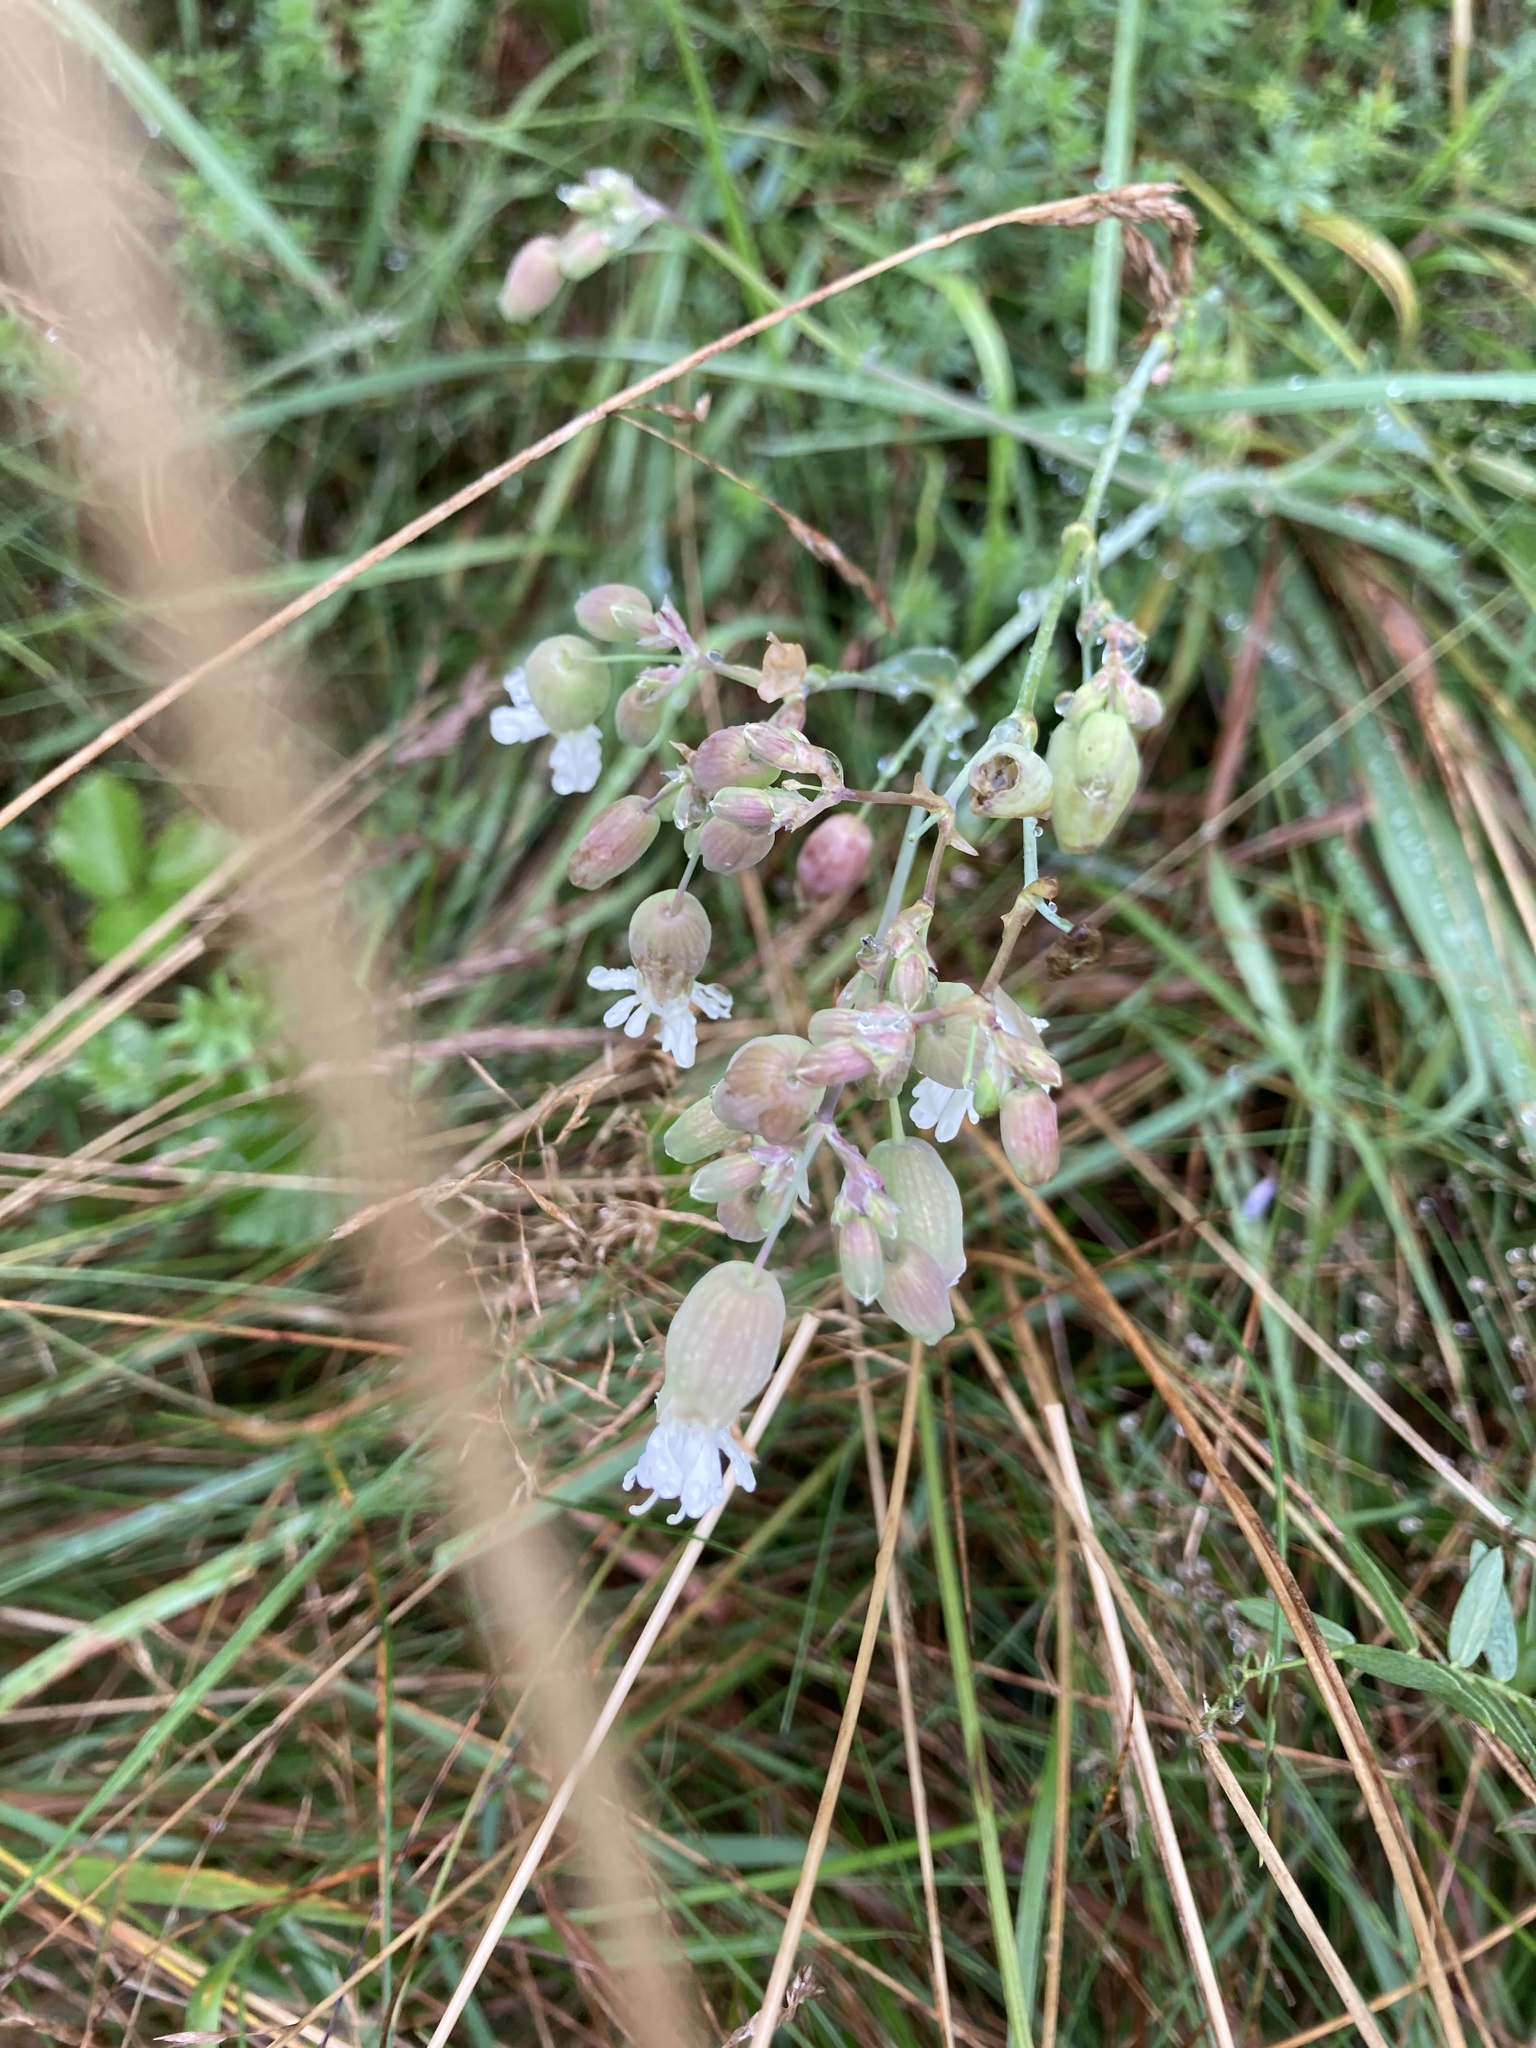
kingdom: Plantae
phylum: Tracheophyta
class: Magnoliopsida
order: Caryophyllales
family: Caryophyllaceae
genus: Silene
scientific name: Silene vulgaris
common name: Bladder campion
